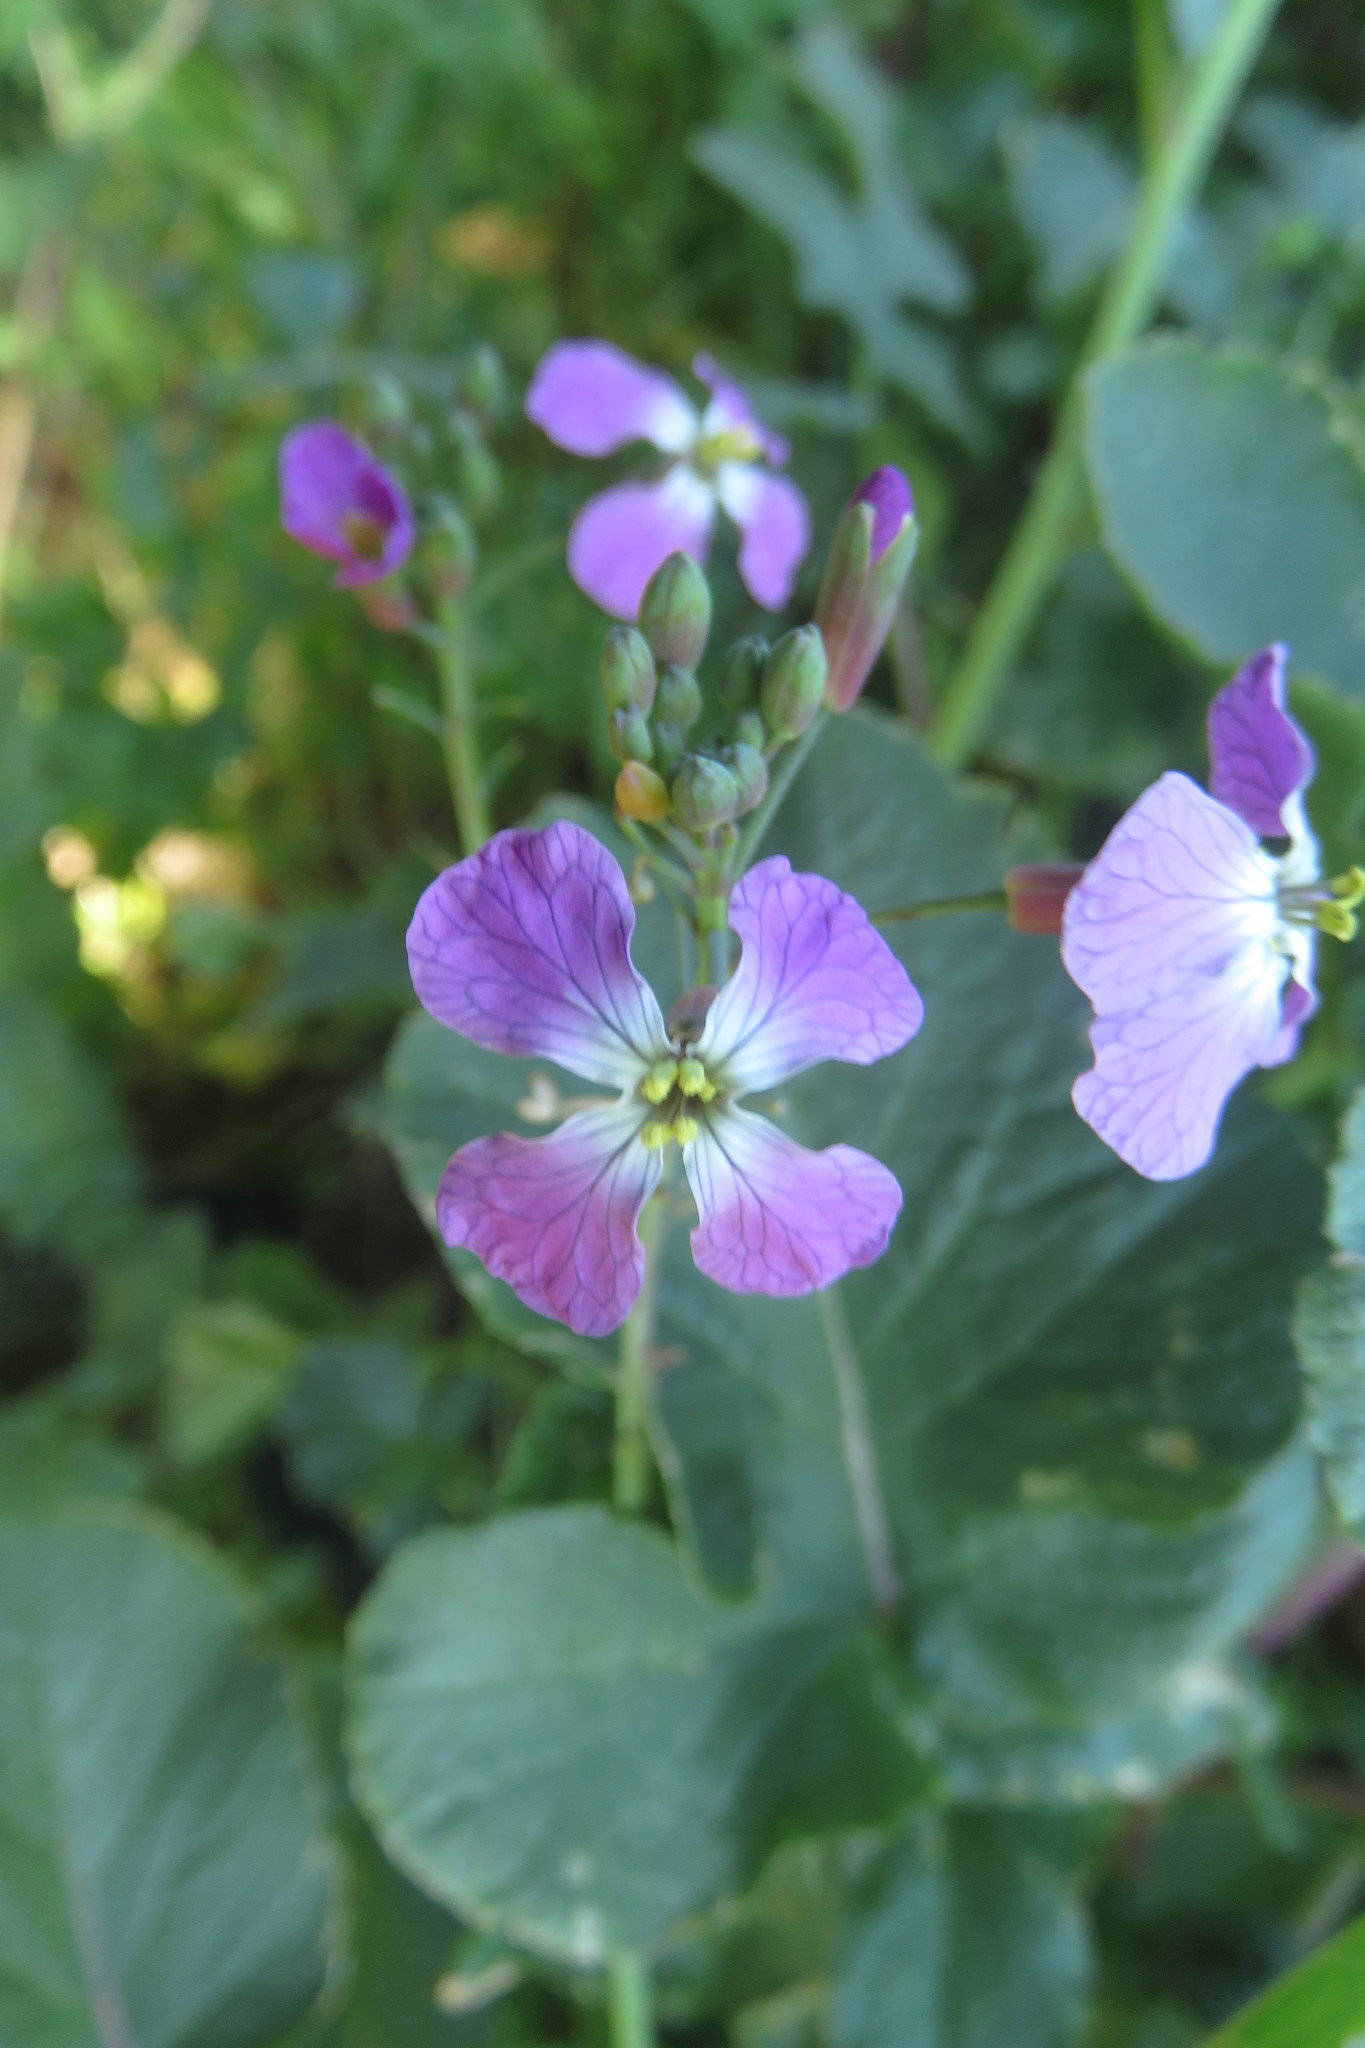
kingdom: Plantae
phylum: Tracheophyta
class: Magnoliopsida
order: Brassicales
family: Brassicaceae
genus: Raphanus
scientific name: Raphanus sativus
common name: Cultivated radish
